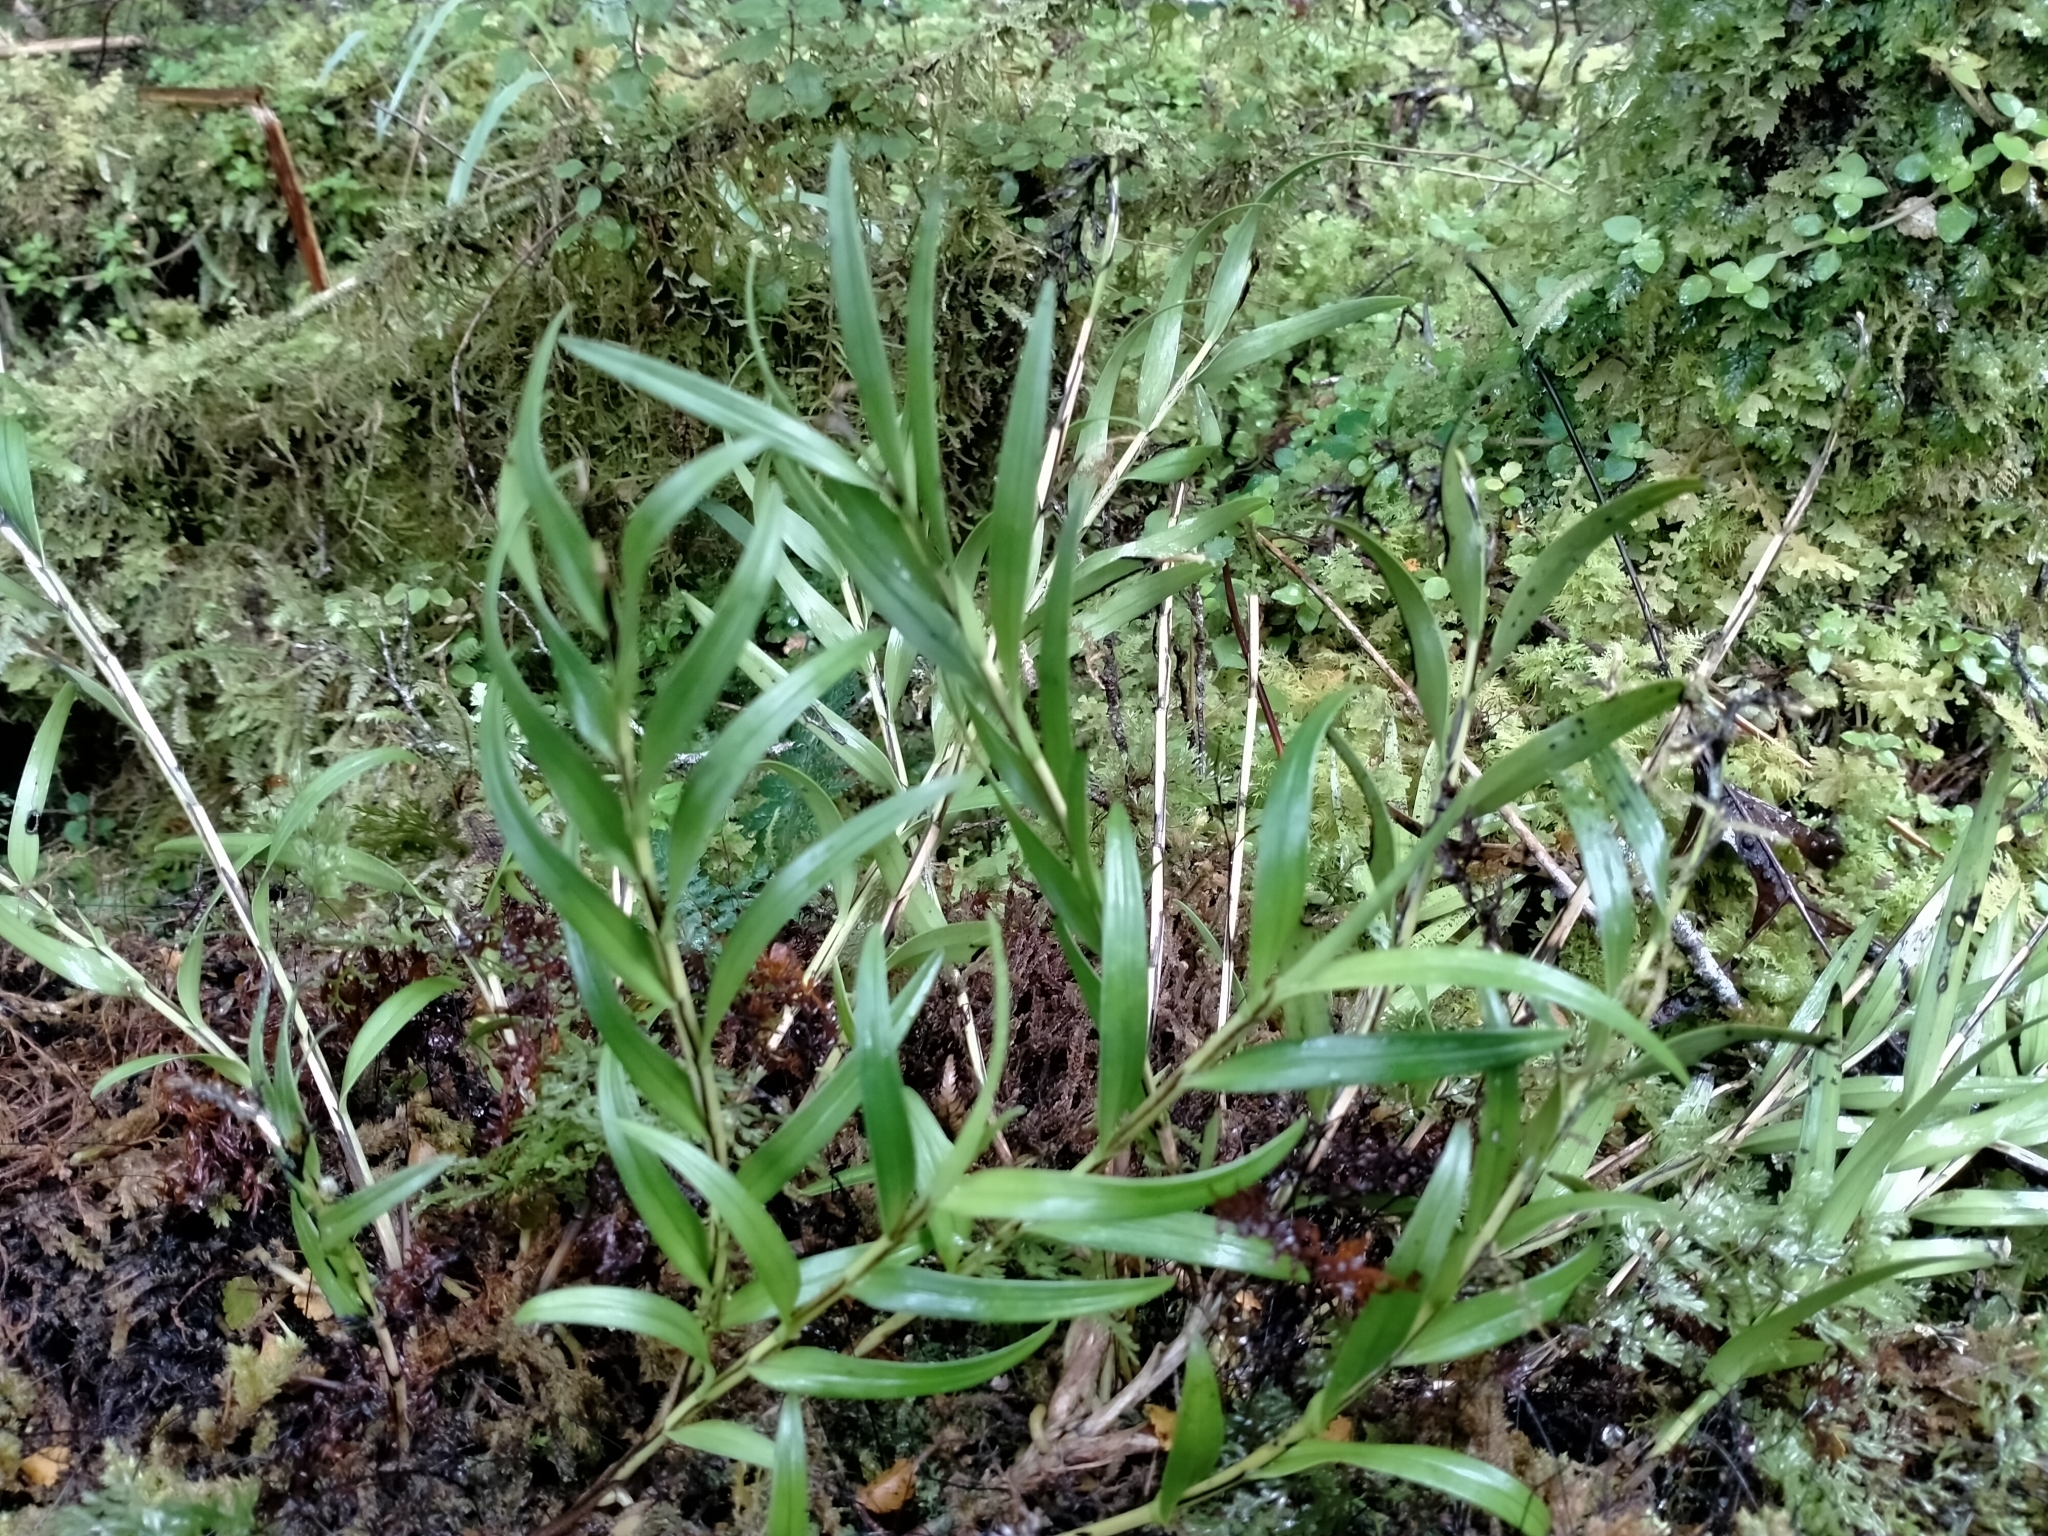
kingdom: Plantae
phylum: Tracheophyta
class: Liliopsida
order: Asparagales
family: Orchidaceae
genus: Earina
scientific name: Earina autumnalis
